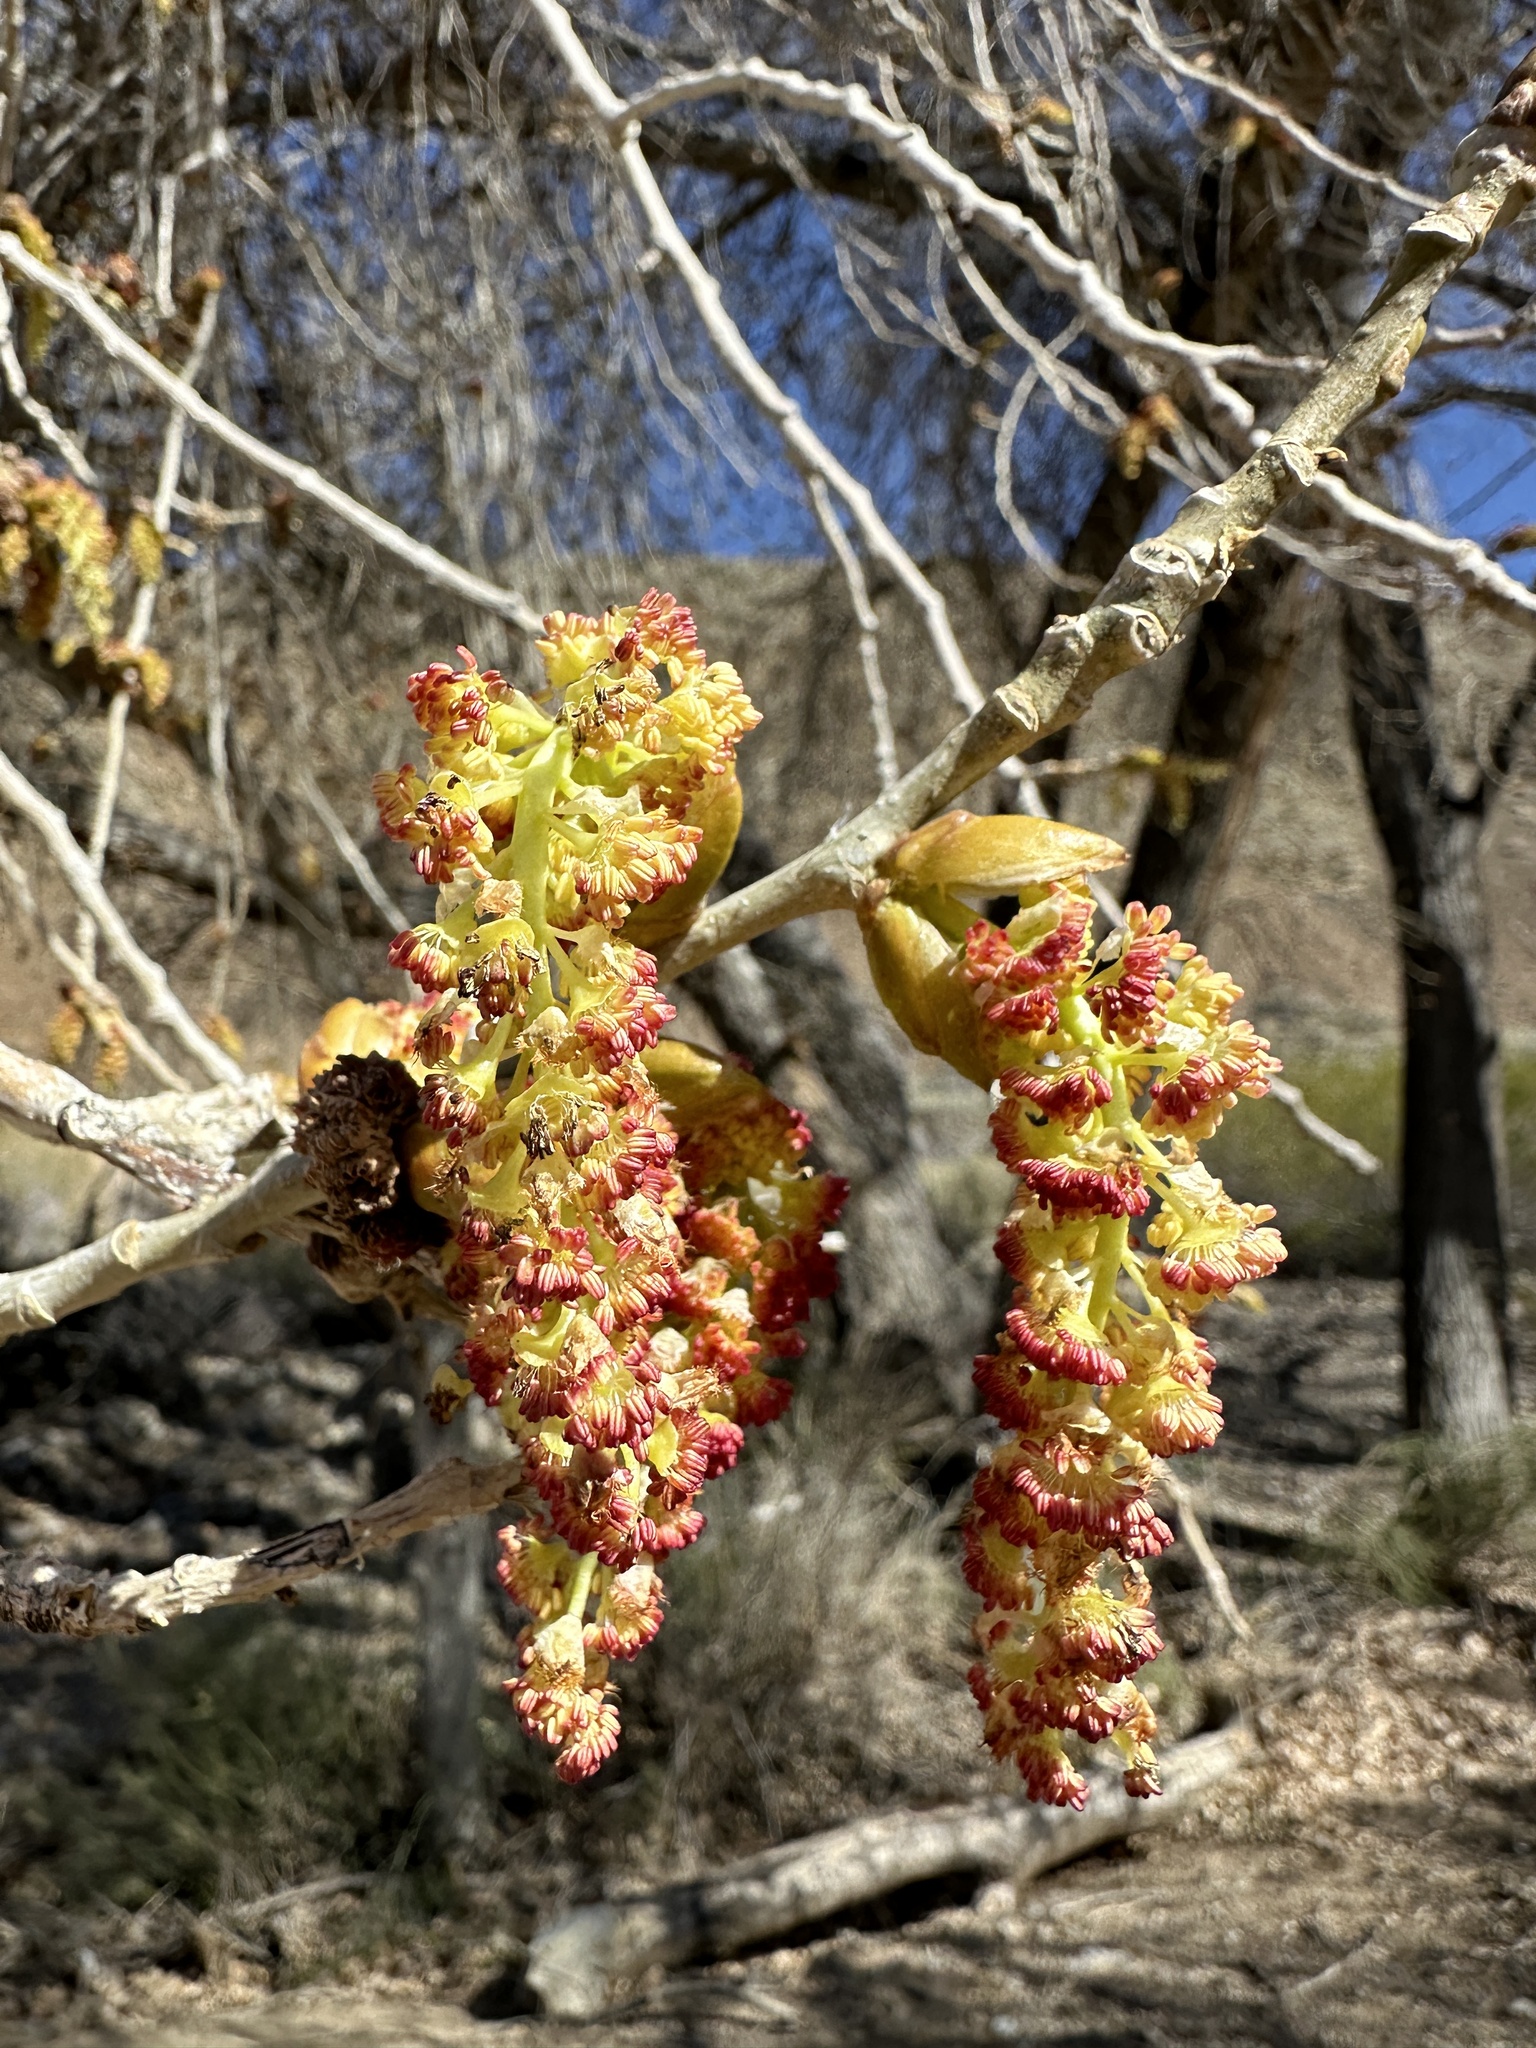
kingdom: Plantae
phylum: Tracheophyta
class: Magnoliopsida
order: Malpighiales
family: Salicaceae
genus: Populus
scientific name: Populus fremontii
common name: Fremont's cottonwood
